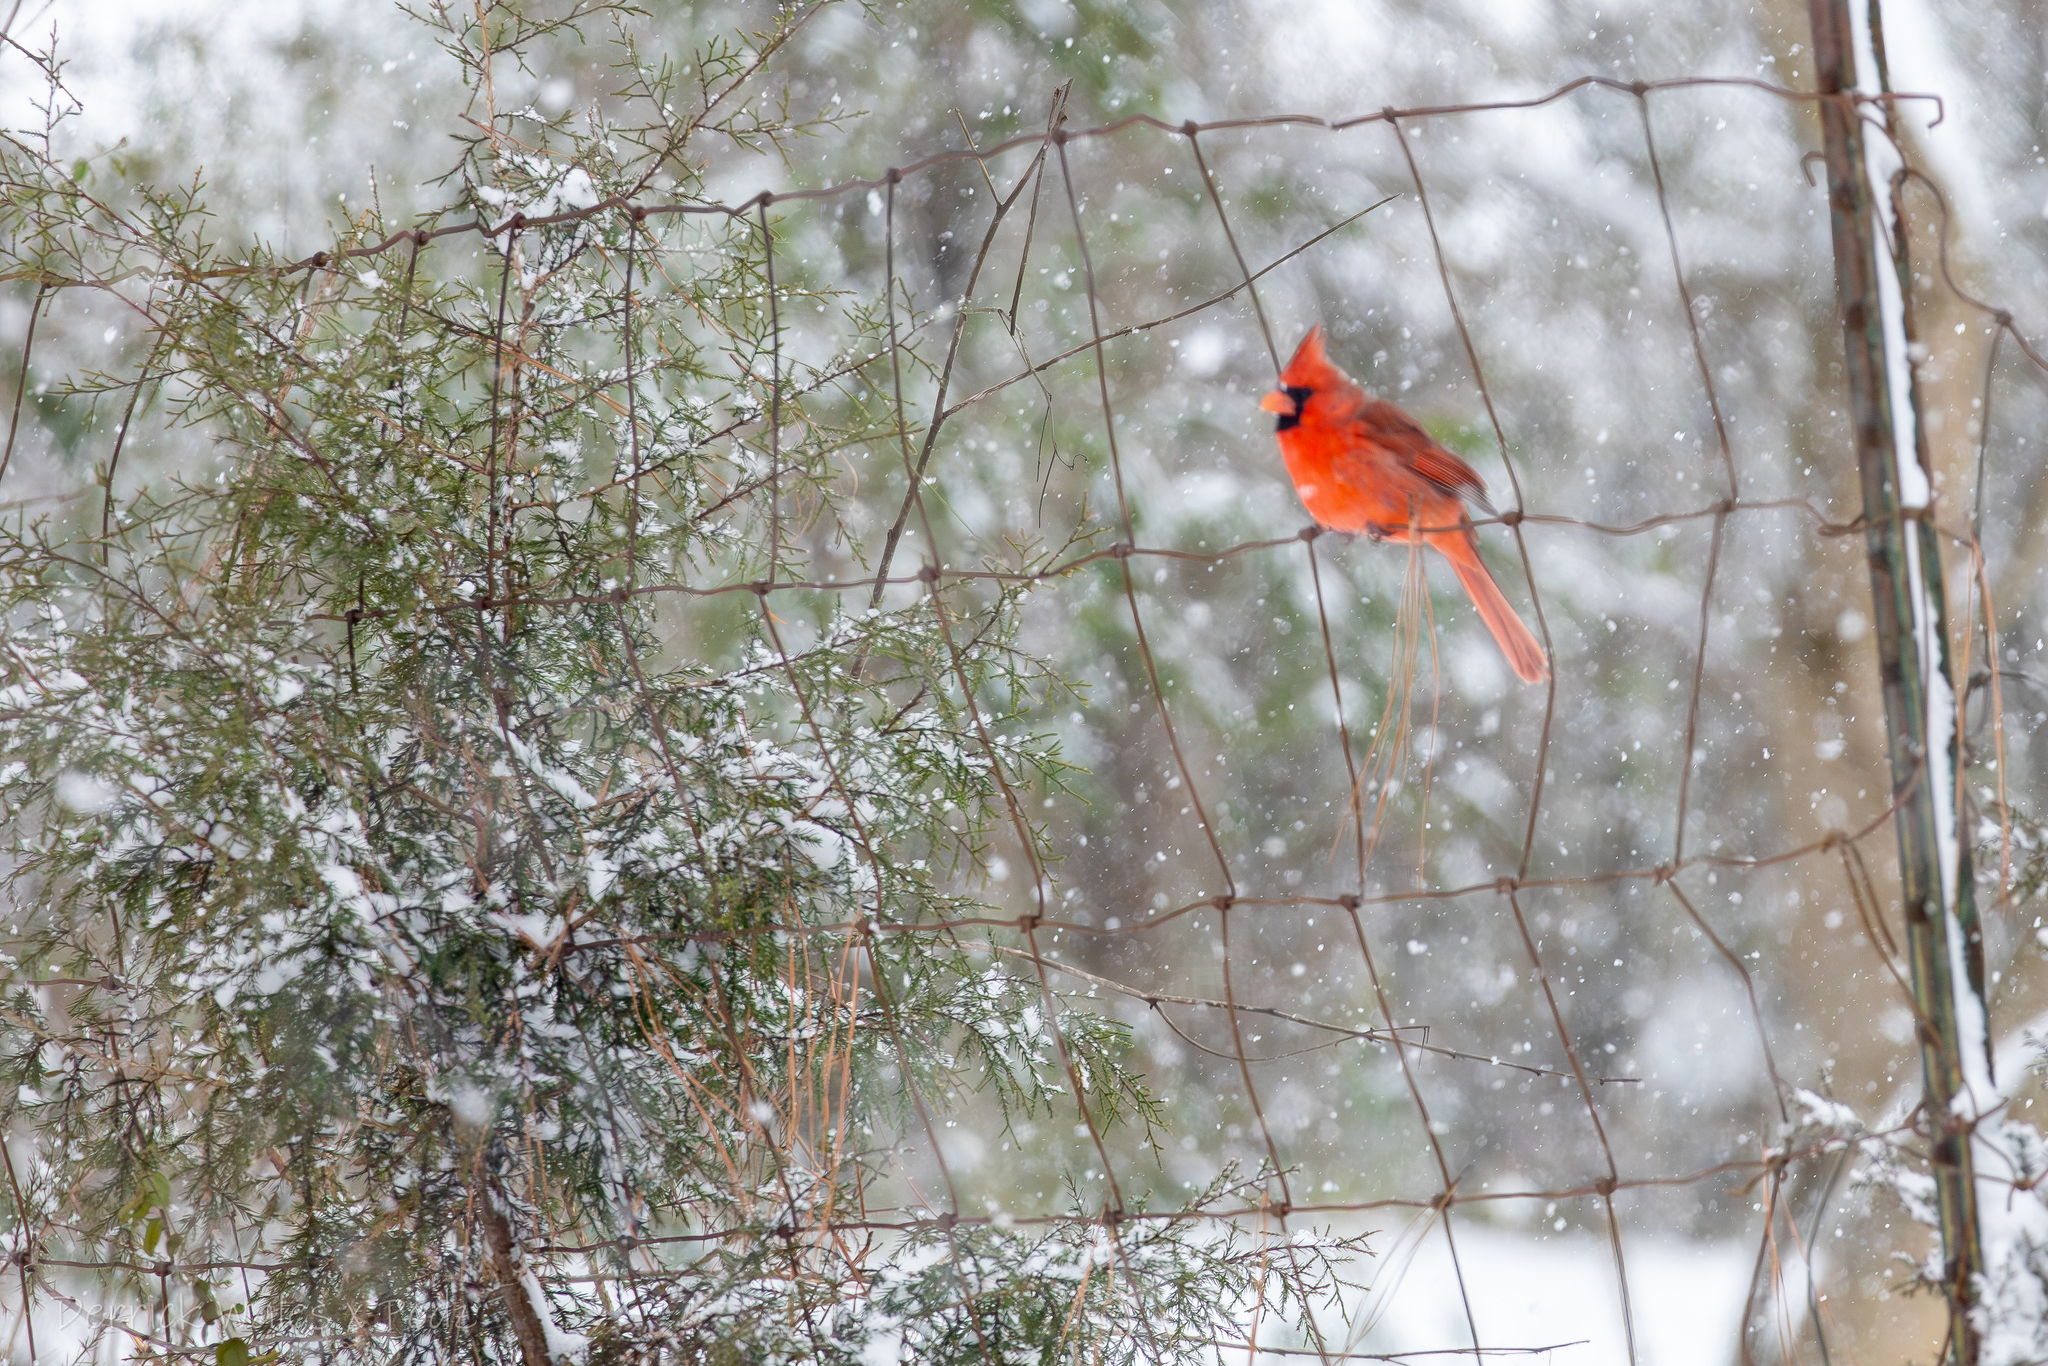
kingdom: Plantae
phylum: Tracheophyta
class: Pinopsida
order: Pinales
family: Cupressaceae
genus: Juniperus
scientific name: Juniperus virginiana
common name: Red juniper
